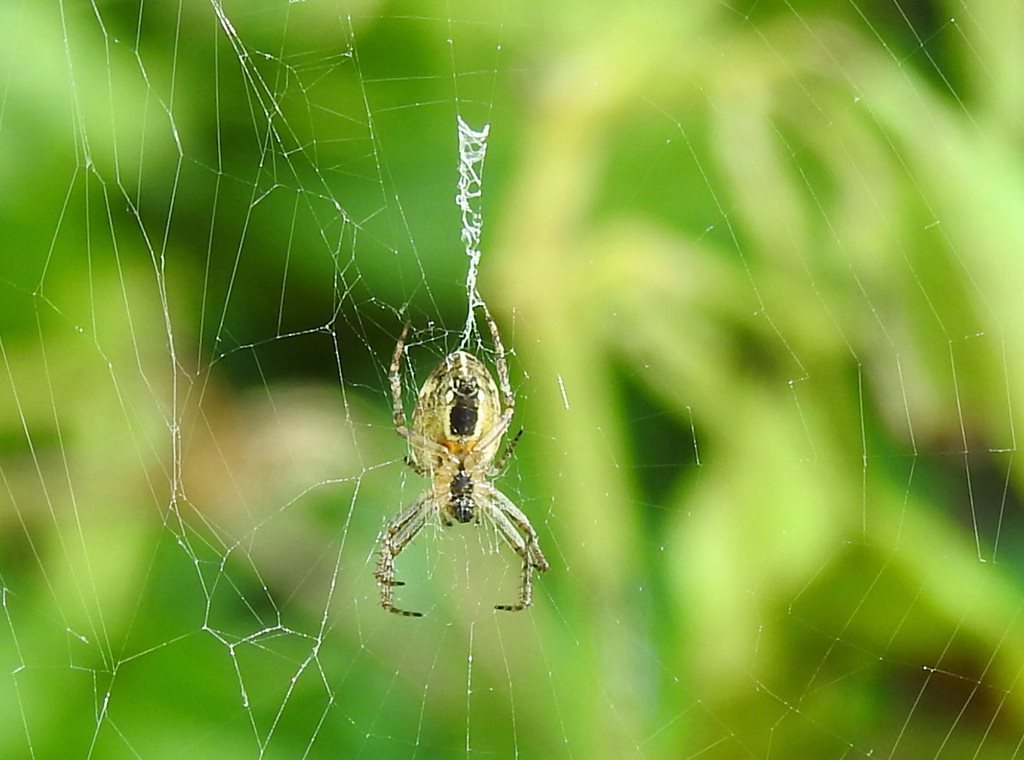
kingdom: Animalia
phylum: Arthropoda
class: Arachnida
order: Araneae
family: Araneidae
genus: Plebs
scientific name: Plebs eburnus
